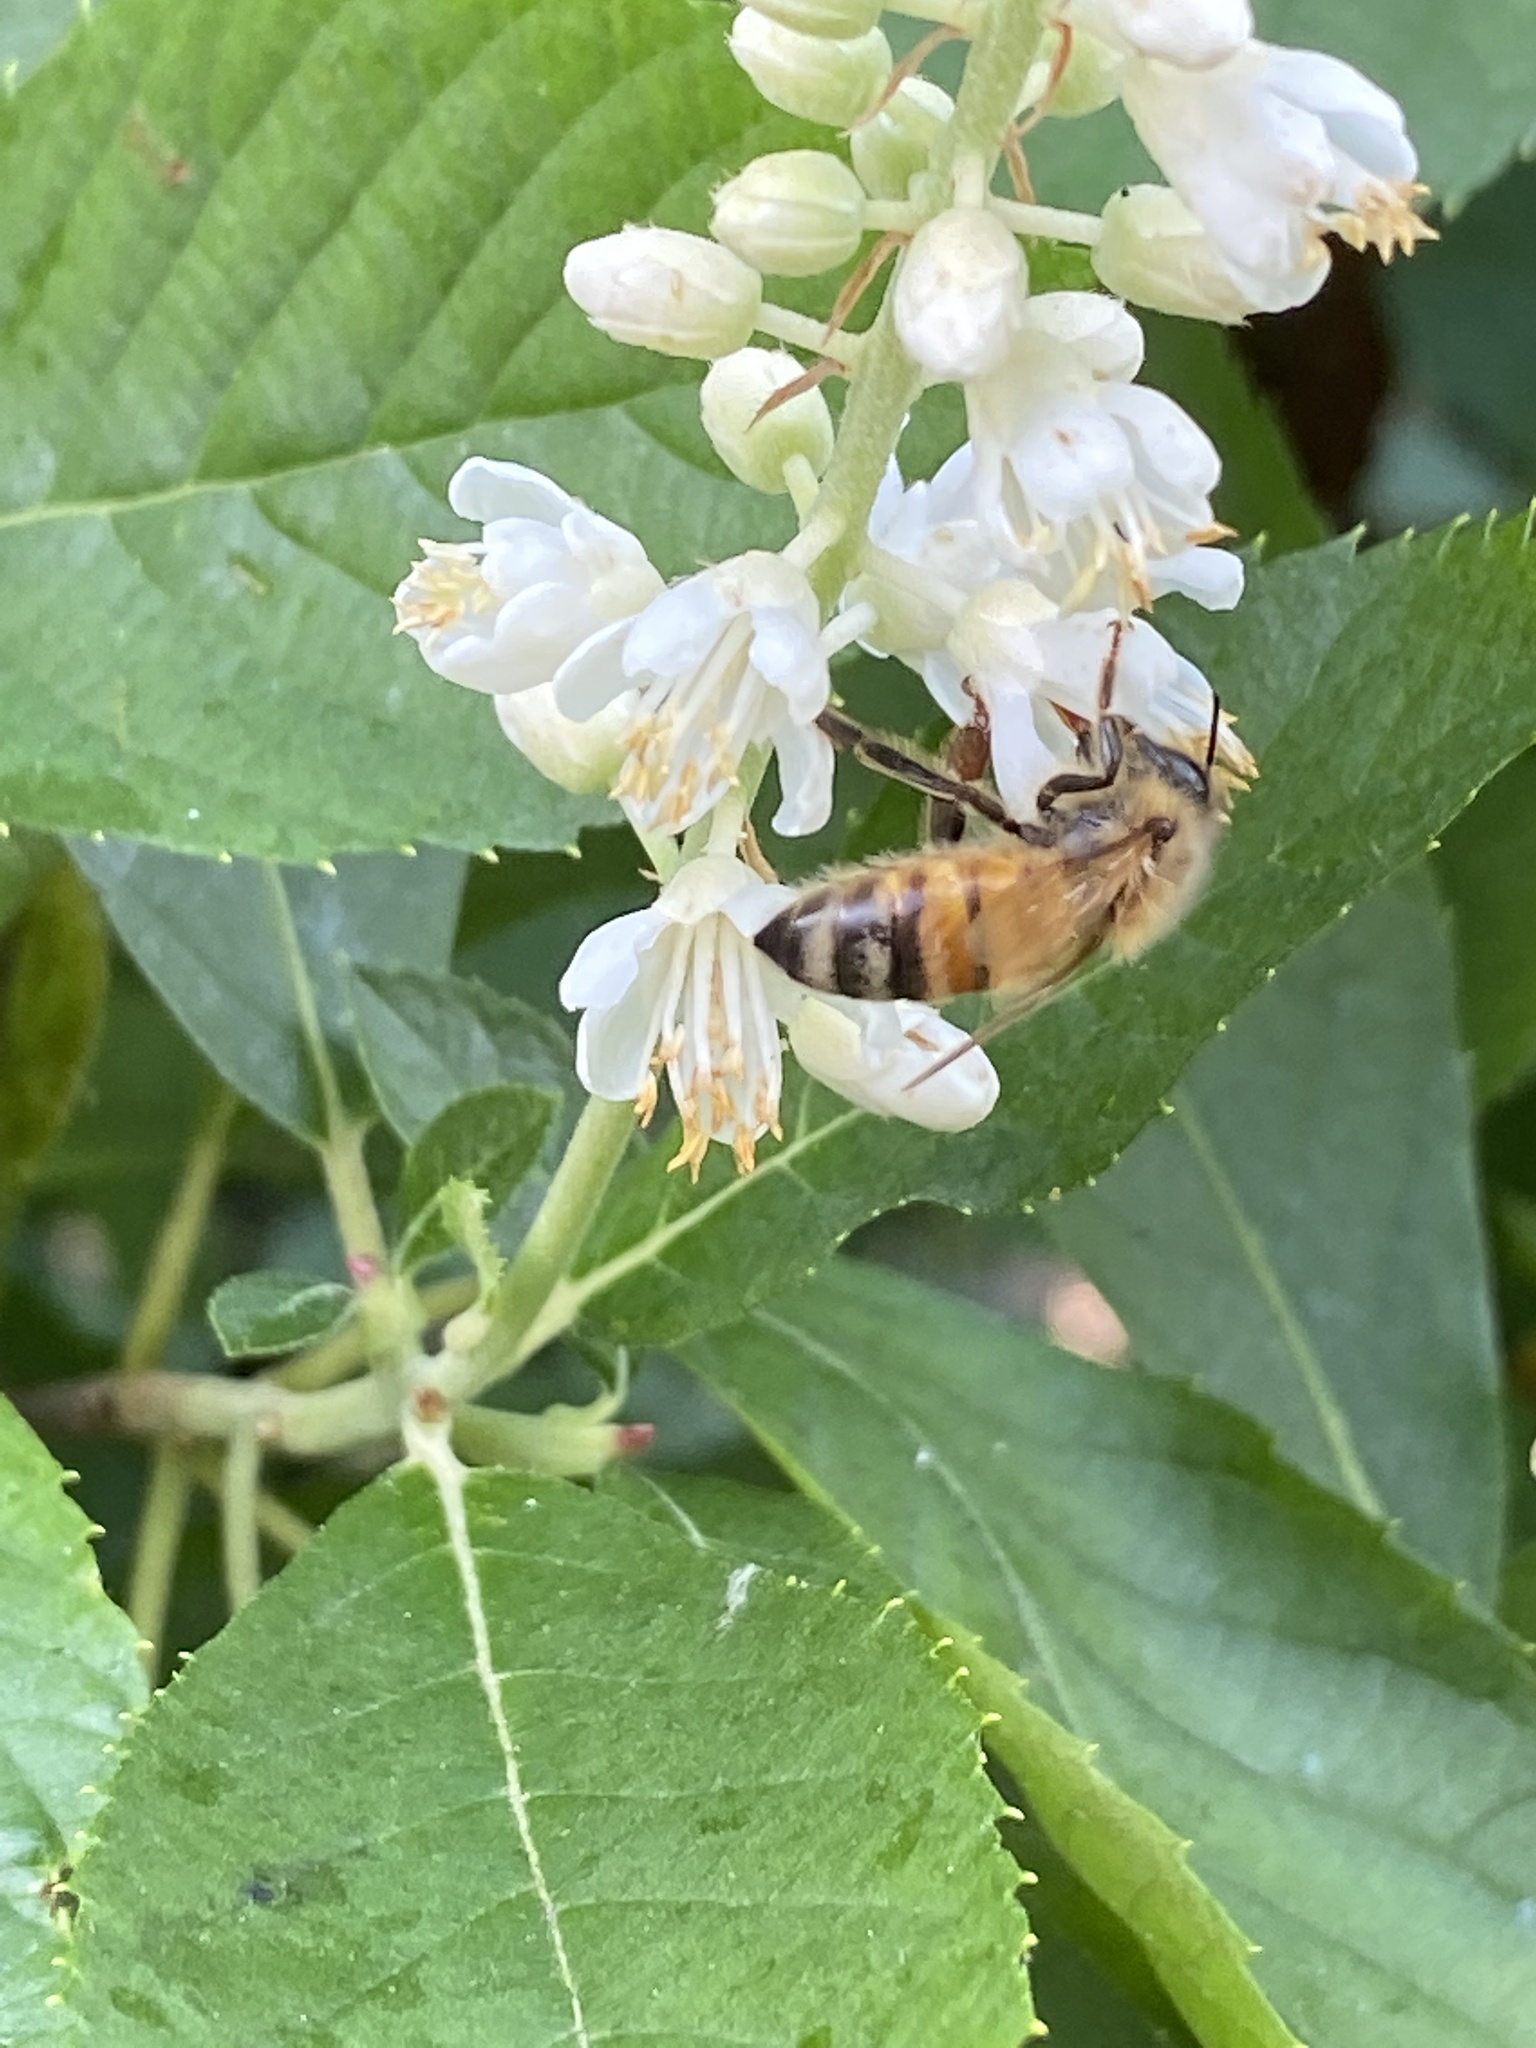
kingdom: Animalia
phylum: Arthropoda
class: Insecta
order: Hymenoptera
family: Apidae
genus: Apis
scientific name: Apis mellifera
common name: Honey bee
